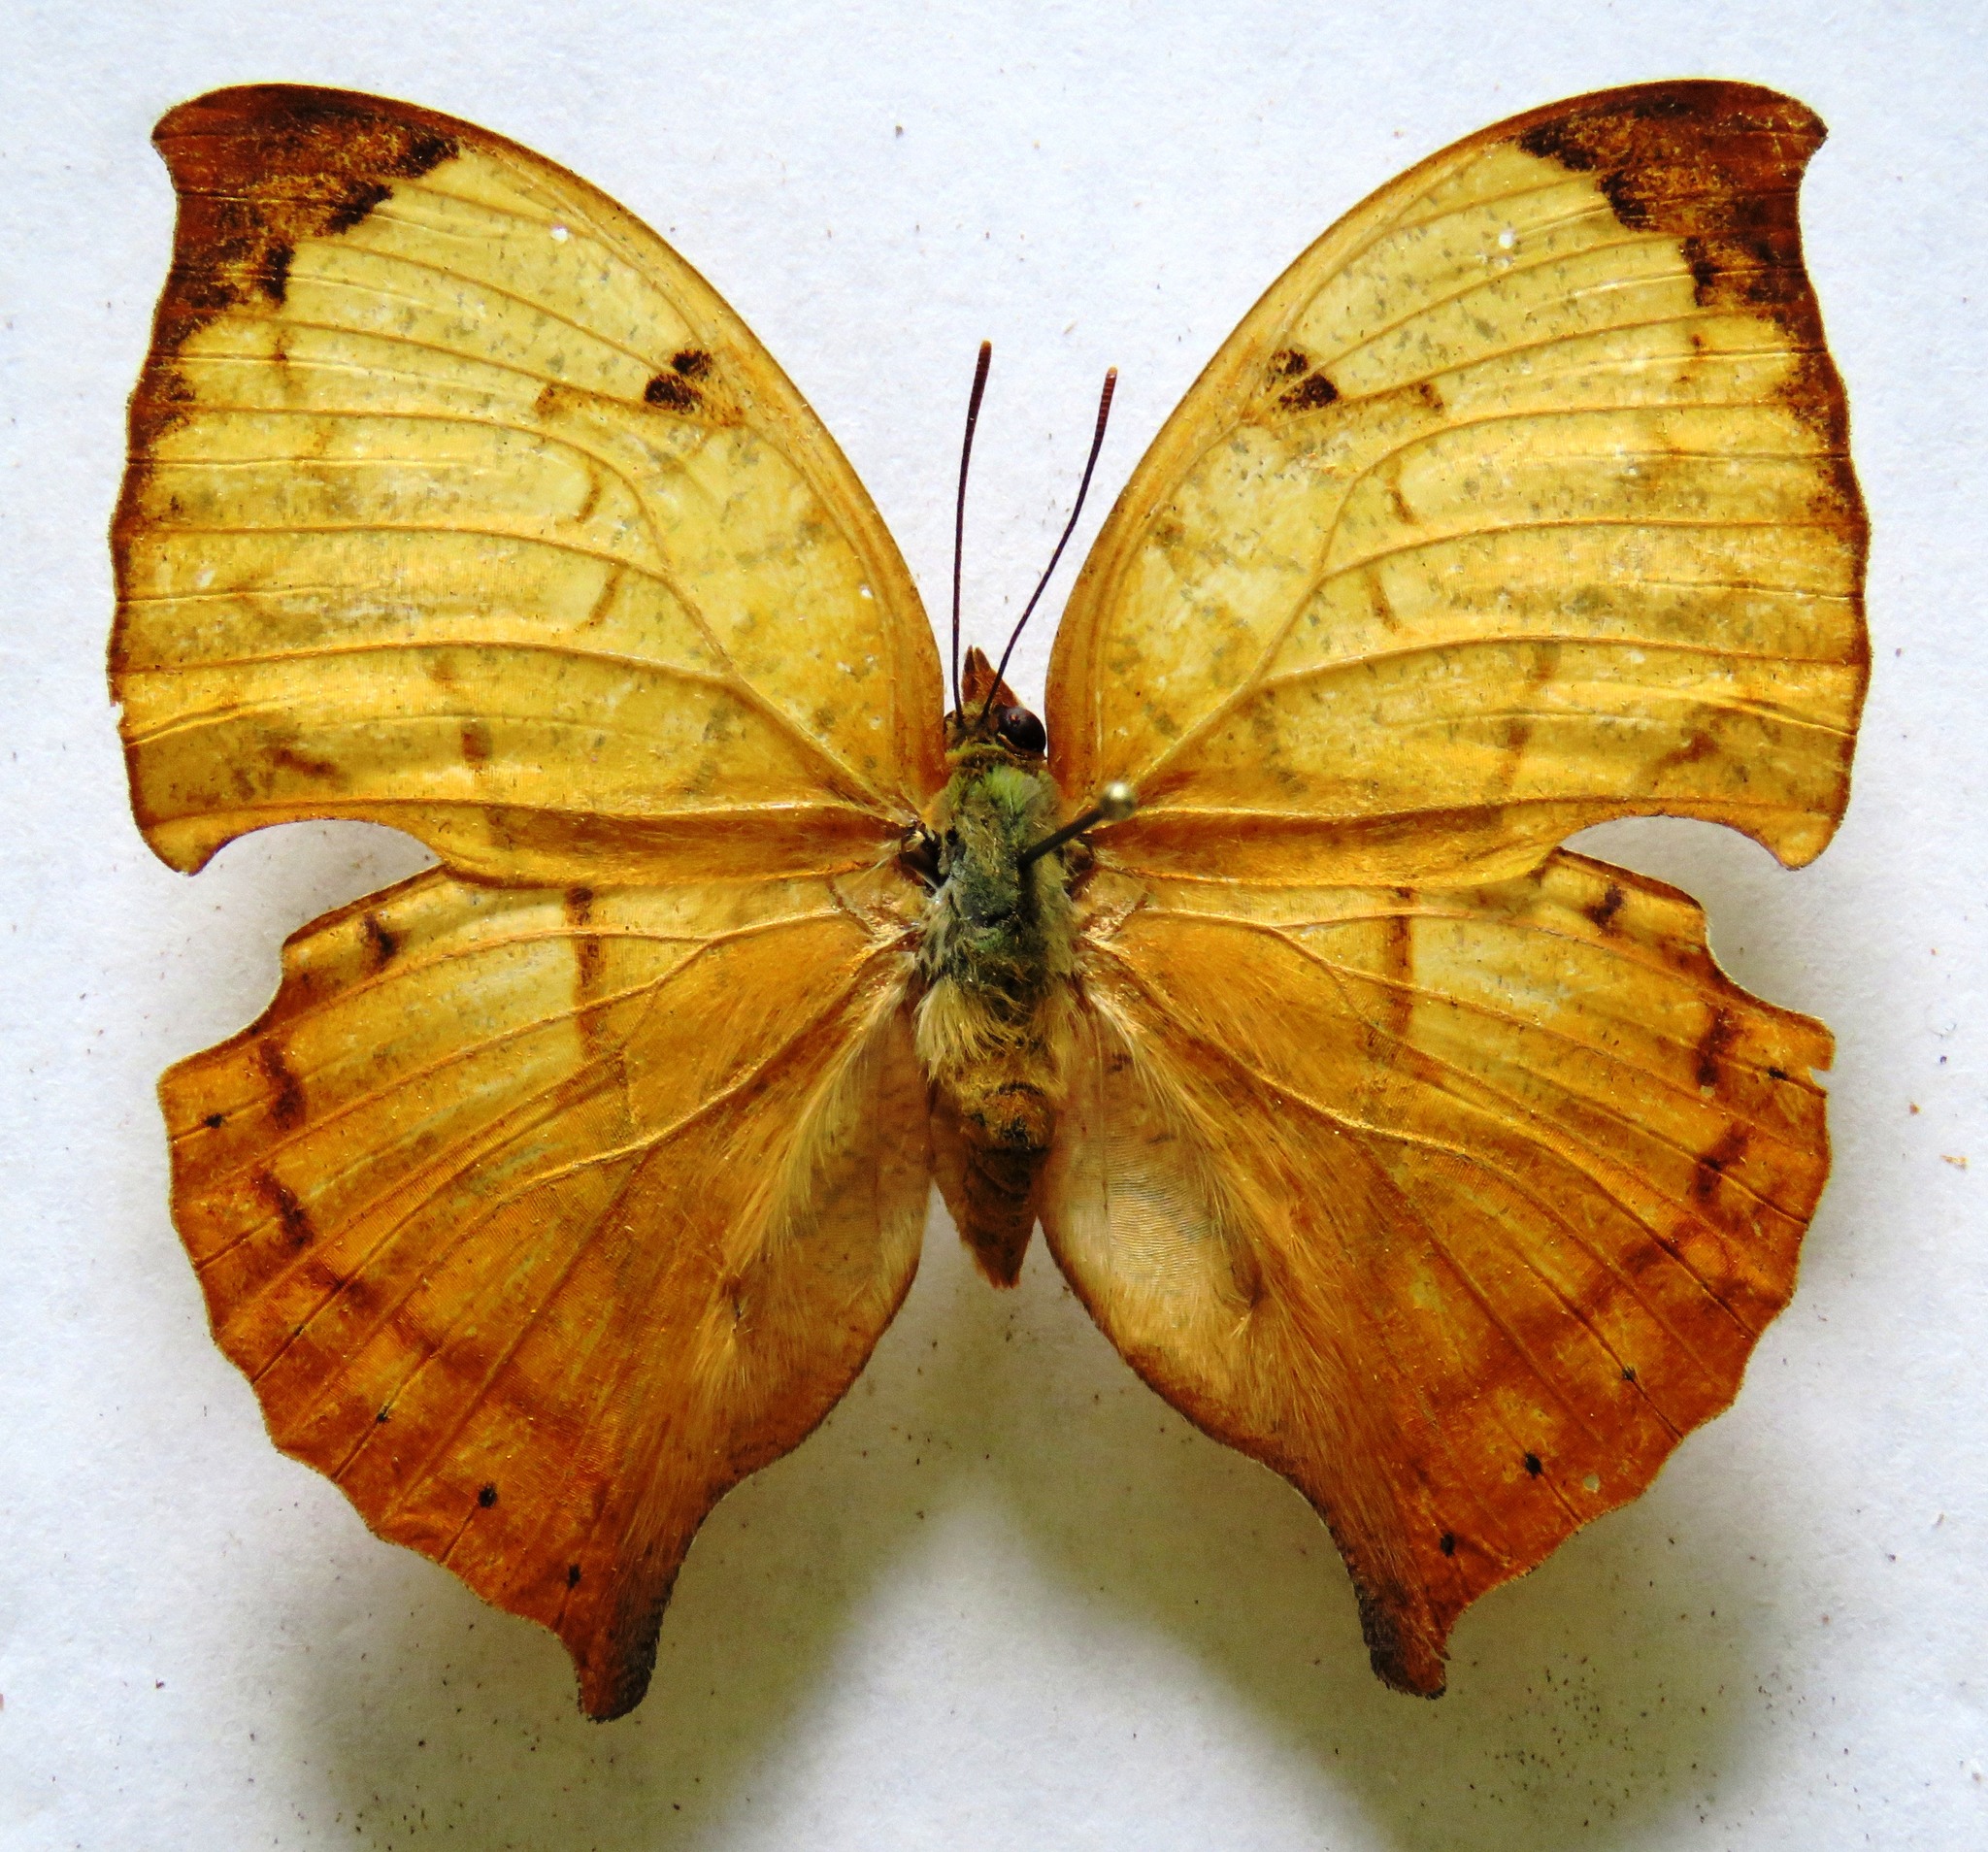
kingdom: Animalia
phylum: Arthropoda
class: Insecta
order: Lepidoptera
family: Nymphalidae
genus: Zaretis
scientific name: Zaretis itys
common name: Skeletonized leafwing
